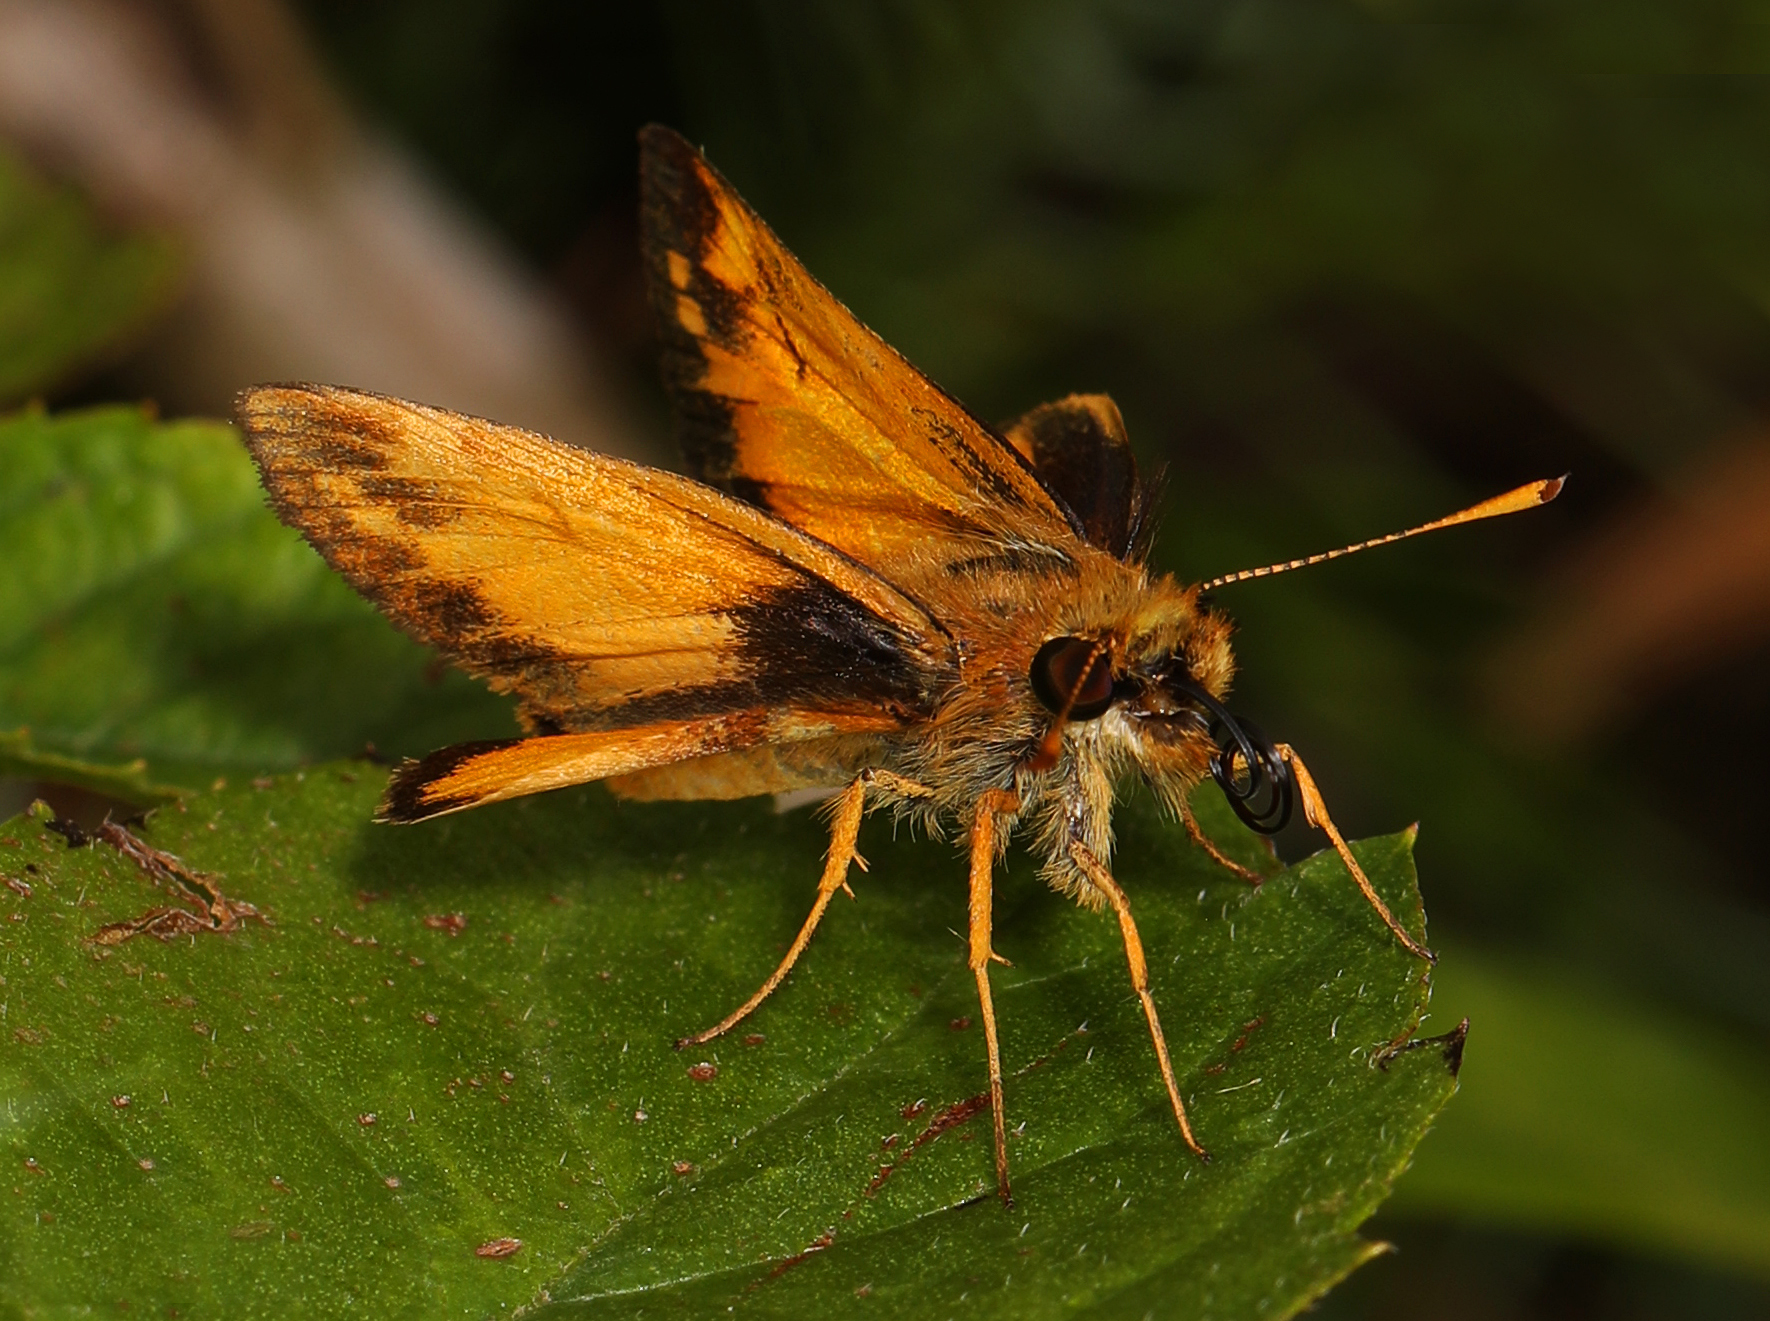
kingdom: Animalia
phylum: Arthropoda
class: Insecta
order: Lepidoptera
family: Hesperiidae
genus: Lon
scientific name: Lon zabulon
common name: Zabulon skipper
